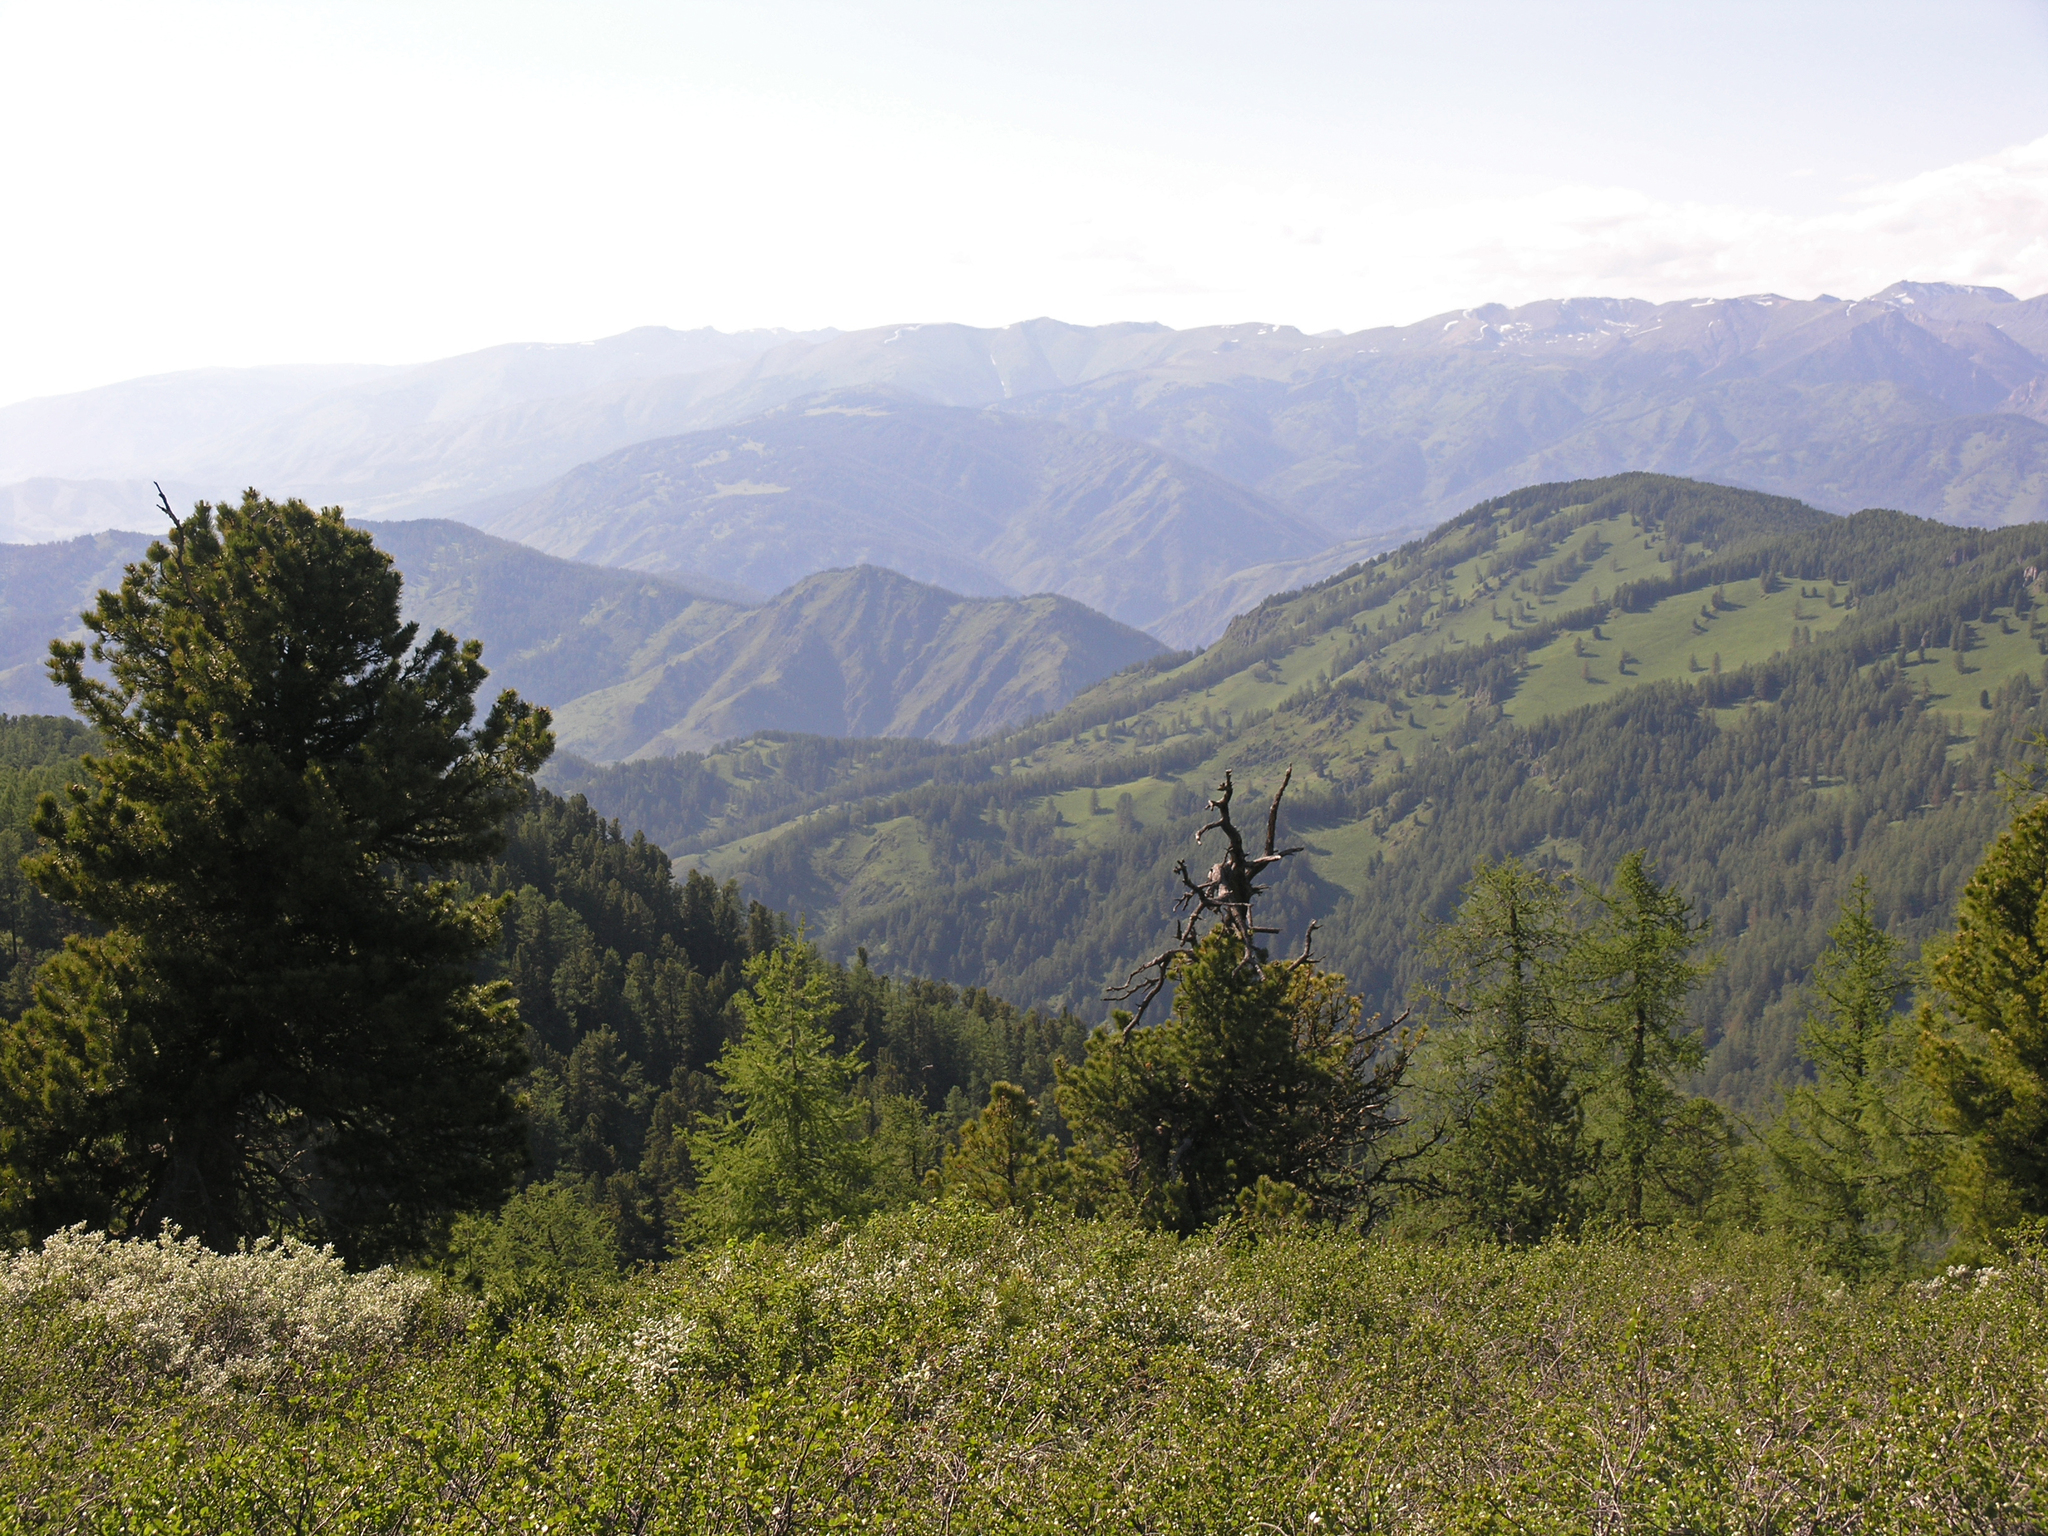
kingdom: Plantae
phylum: Tracheophyta
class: Pinopsida
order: Pinales
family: Pinaceae
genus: Pinus
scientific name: Pinus sibirica
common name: Siberian pine
